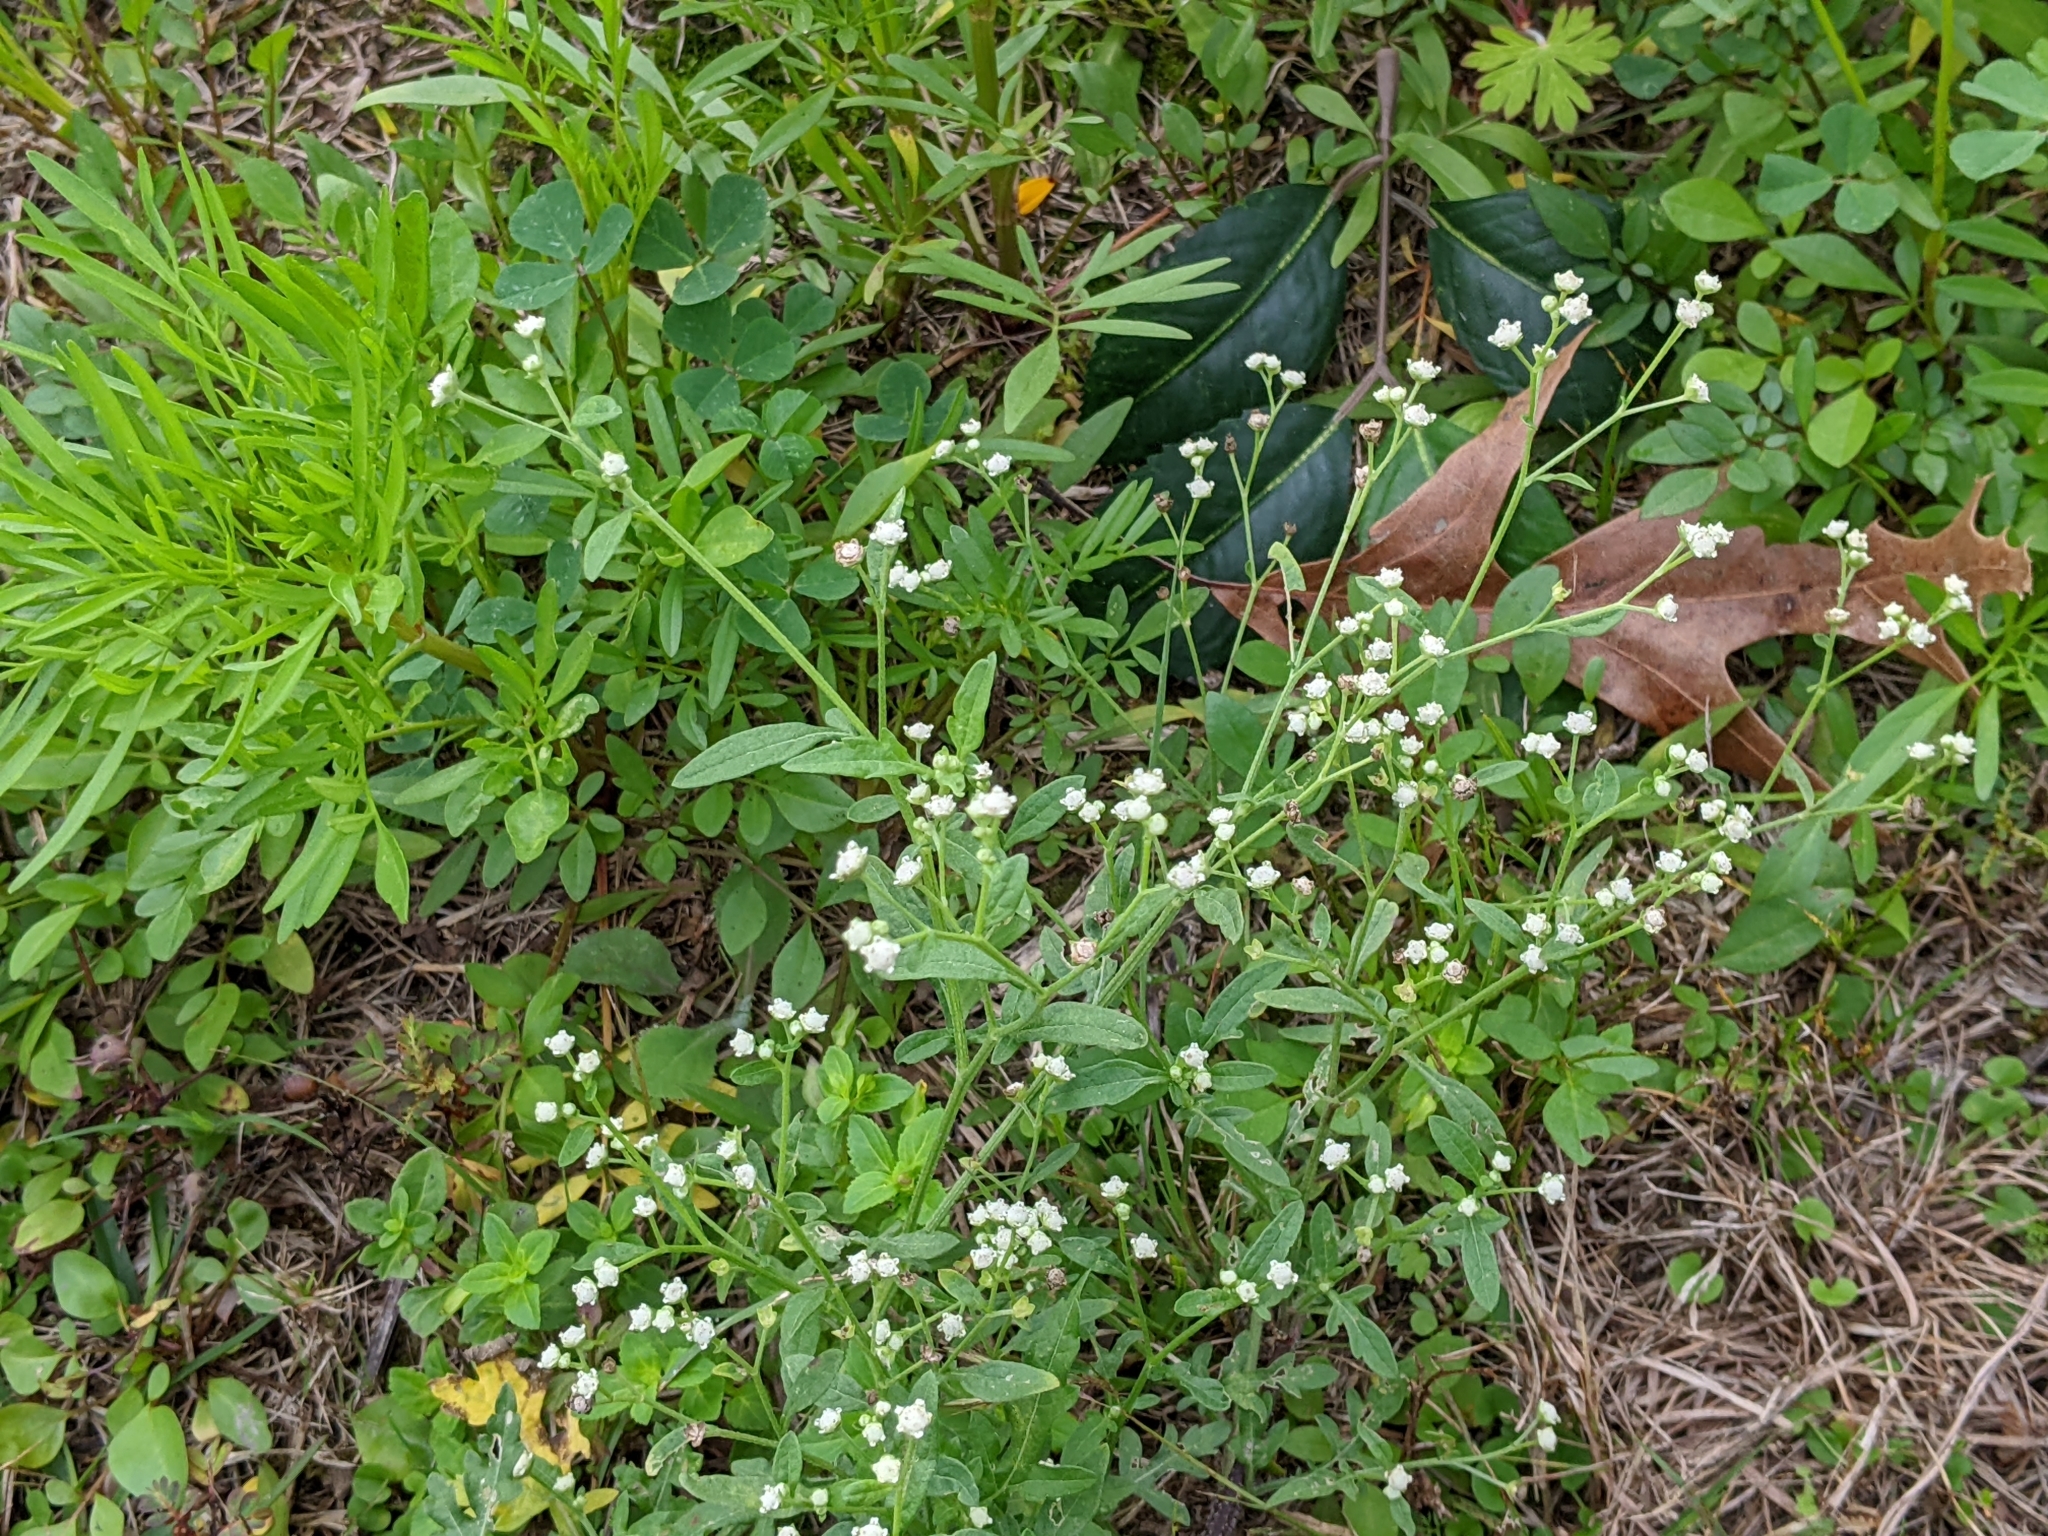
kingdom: Plantae
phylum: Tracheophyta
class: Magnoliopsida
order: Asterales
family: Asteraceae
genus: Parthenium
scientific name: Parthenium hysterophorus
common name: Santa maria feverfew
